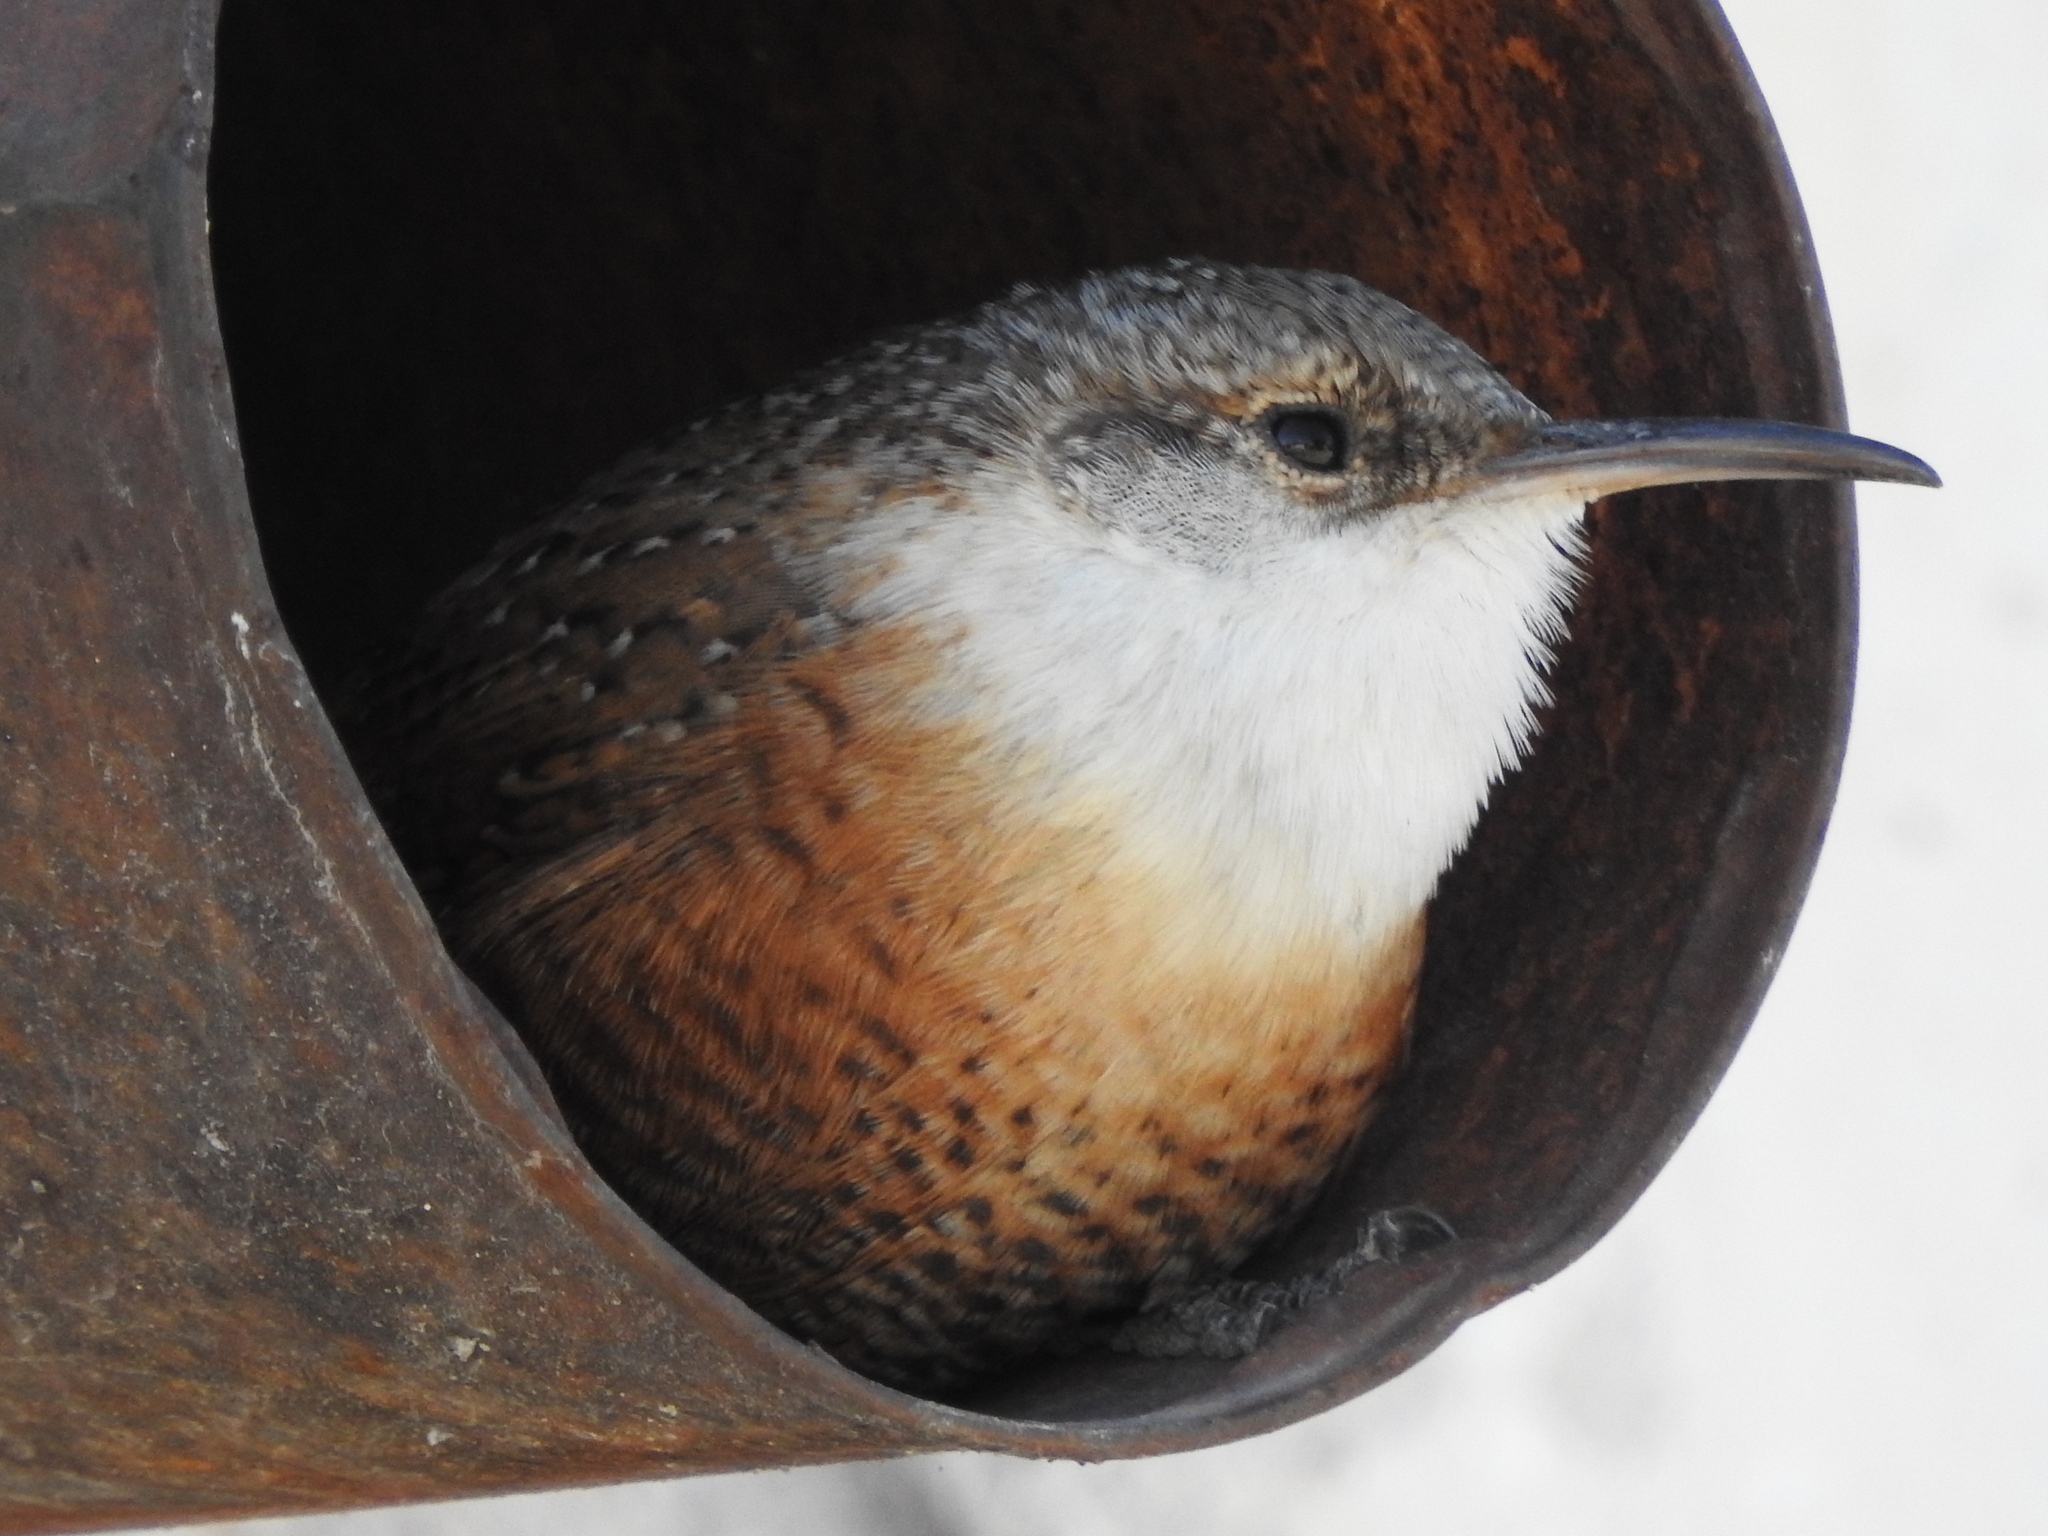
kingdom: Animalia
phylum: Chordata
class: Aves
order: Passeriformes
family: Troglodytidae
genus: Catherpes
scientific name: Catherpes mexicanus
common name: Canyon wren
